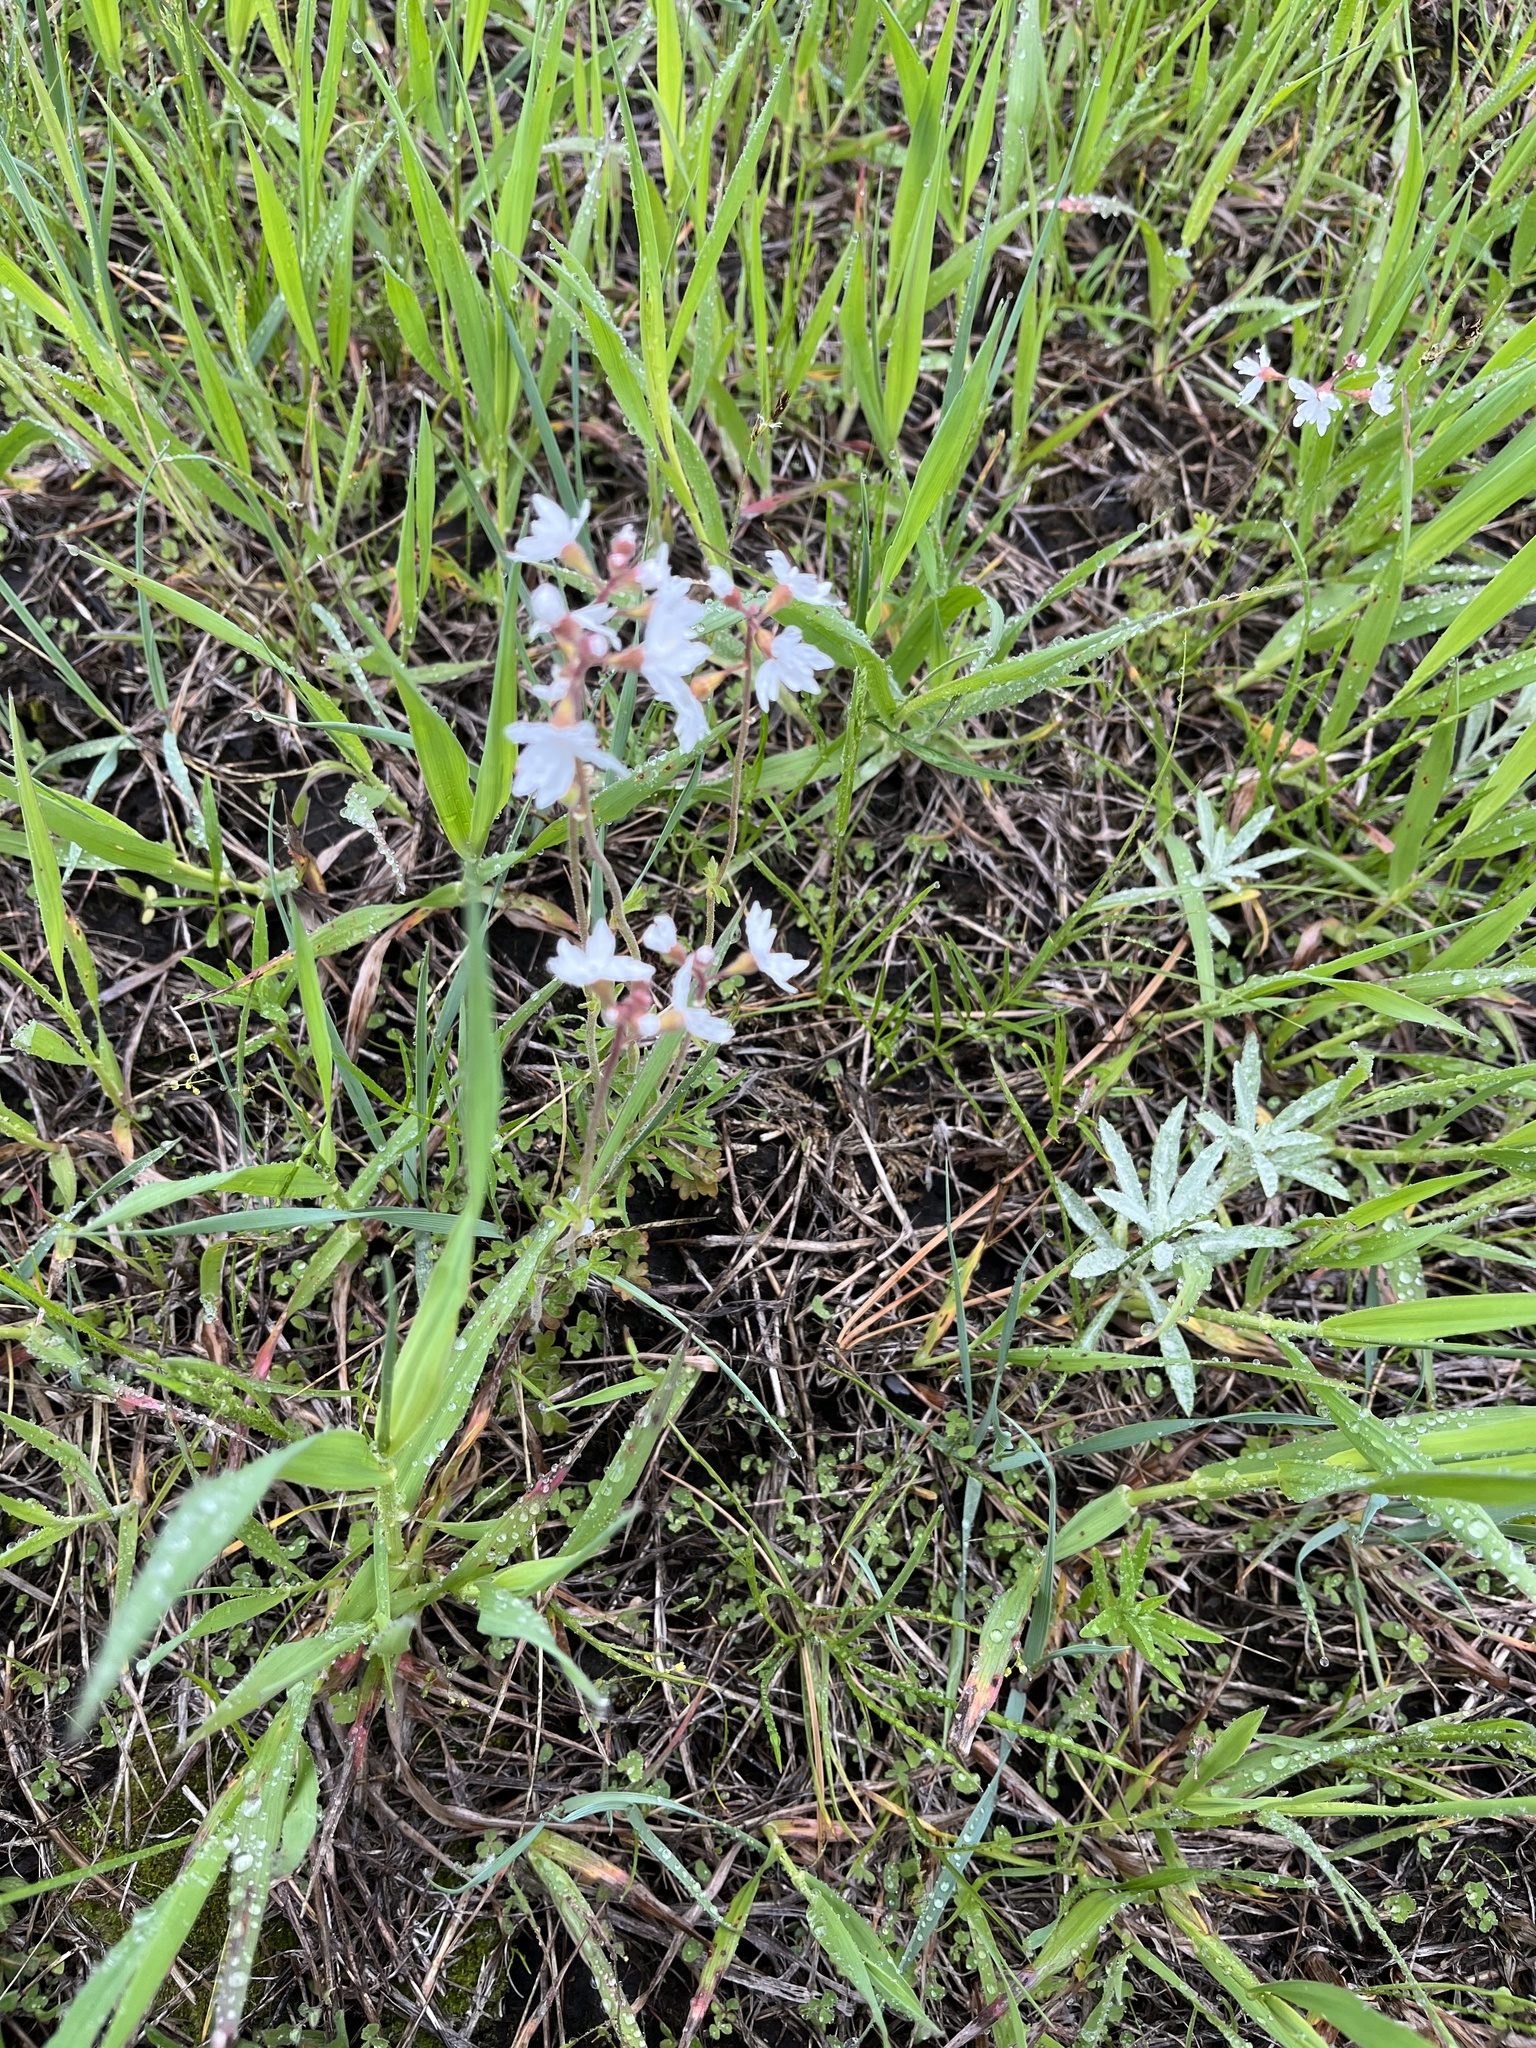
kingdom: Plantae
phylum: Tracheophyta
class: Magnoliopsida
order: Saxifragales
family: Saxifragaceae
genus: Lithophragma
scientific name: Lithophragma parviflorum
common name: Small-flowered fringe-cup
